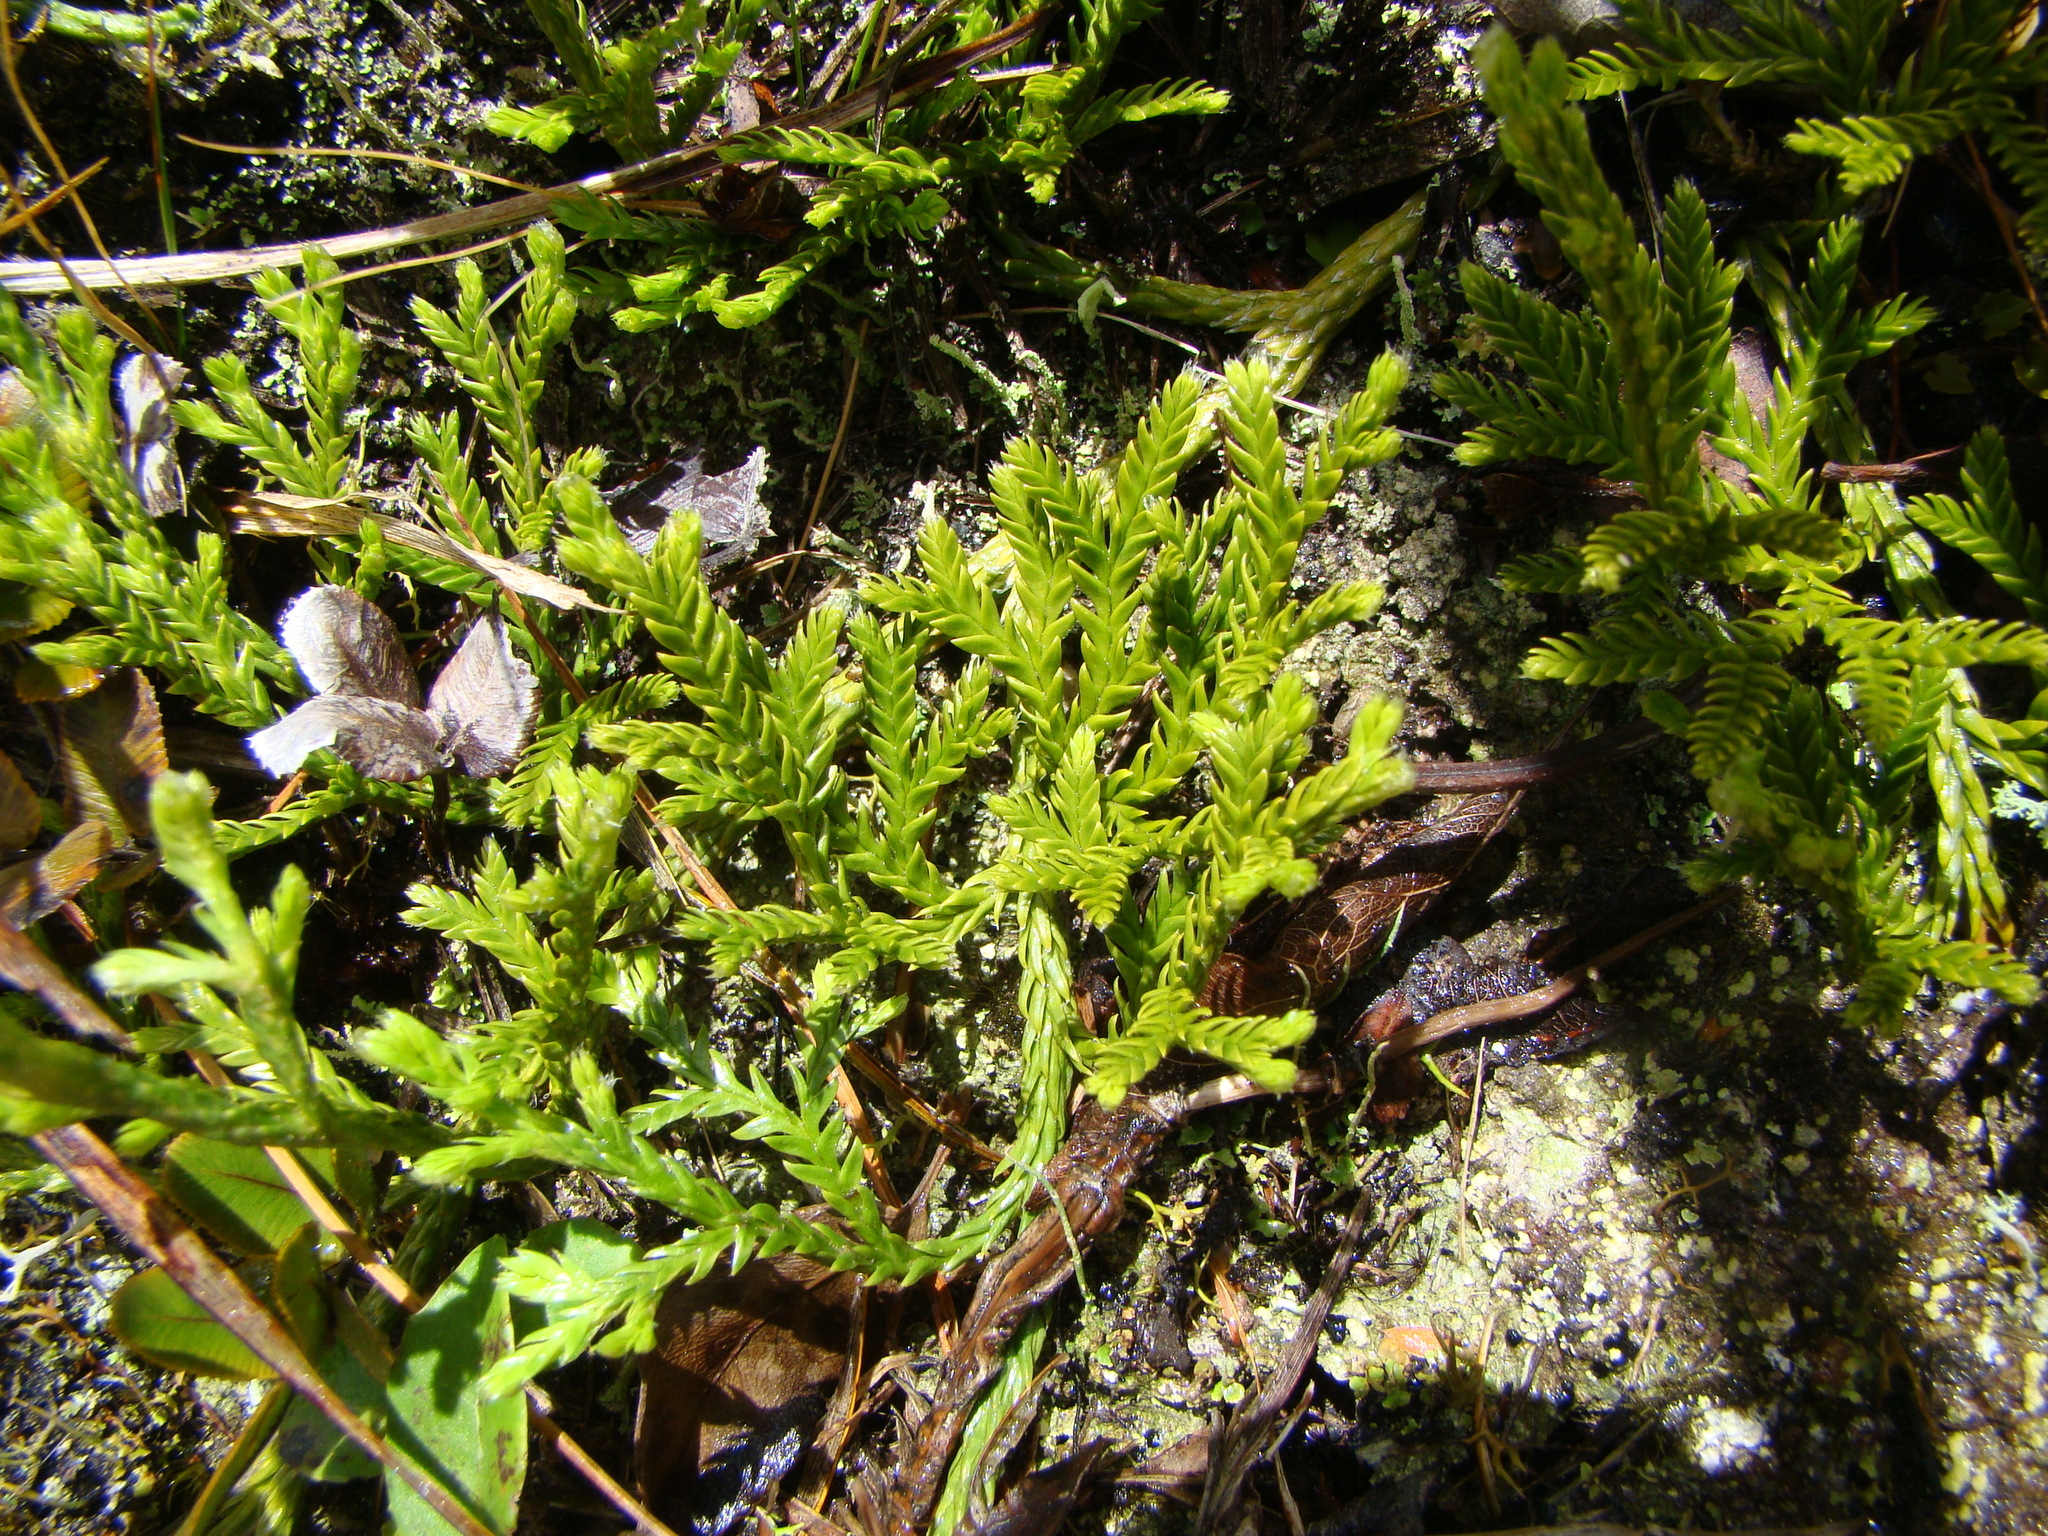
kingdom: Plantae
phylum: Tracheophyta
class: Lycopodiopsida
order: Lycopodiales
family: Lycopodiaceae
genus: Diphasium
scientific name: Diphasium scariosum
